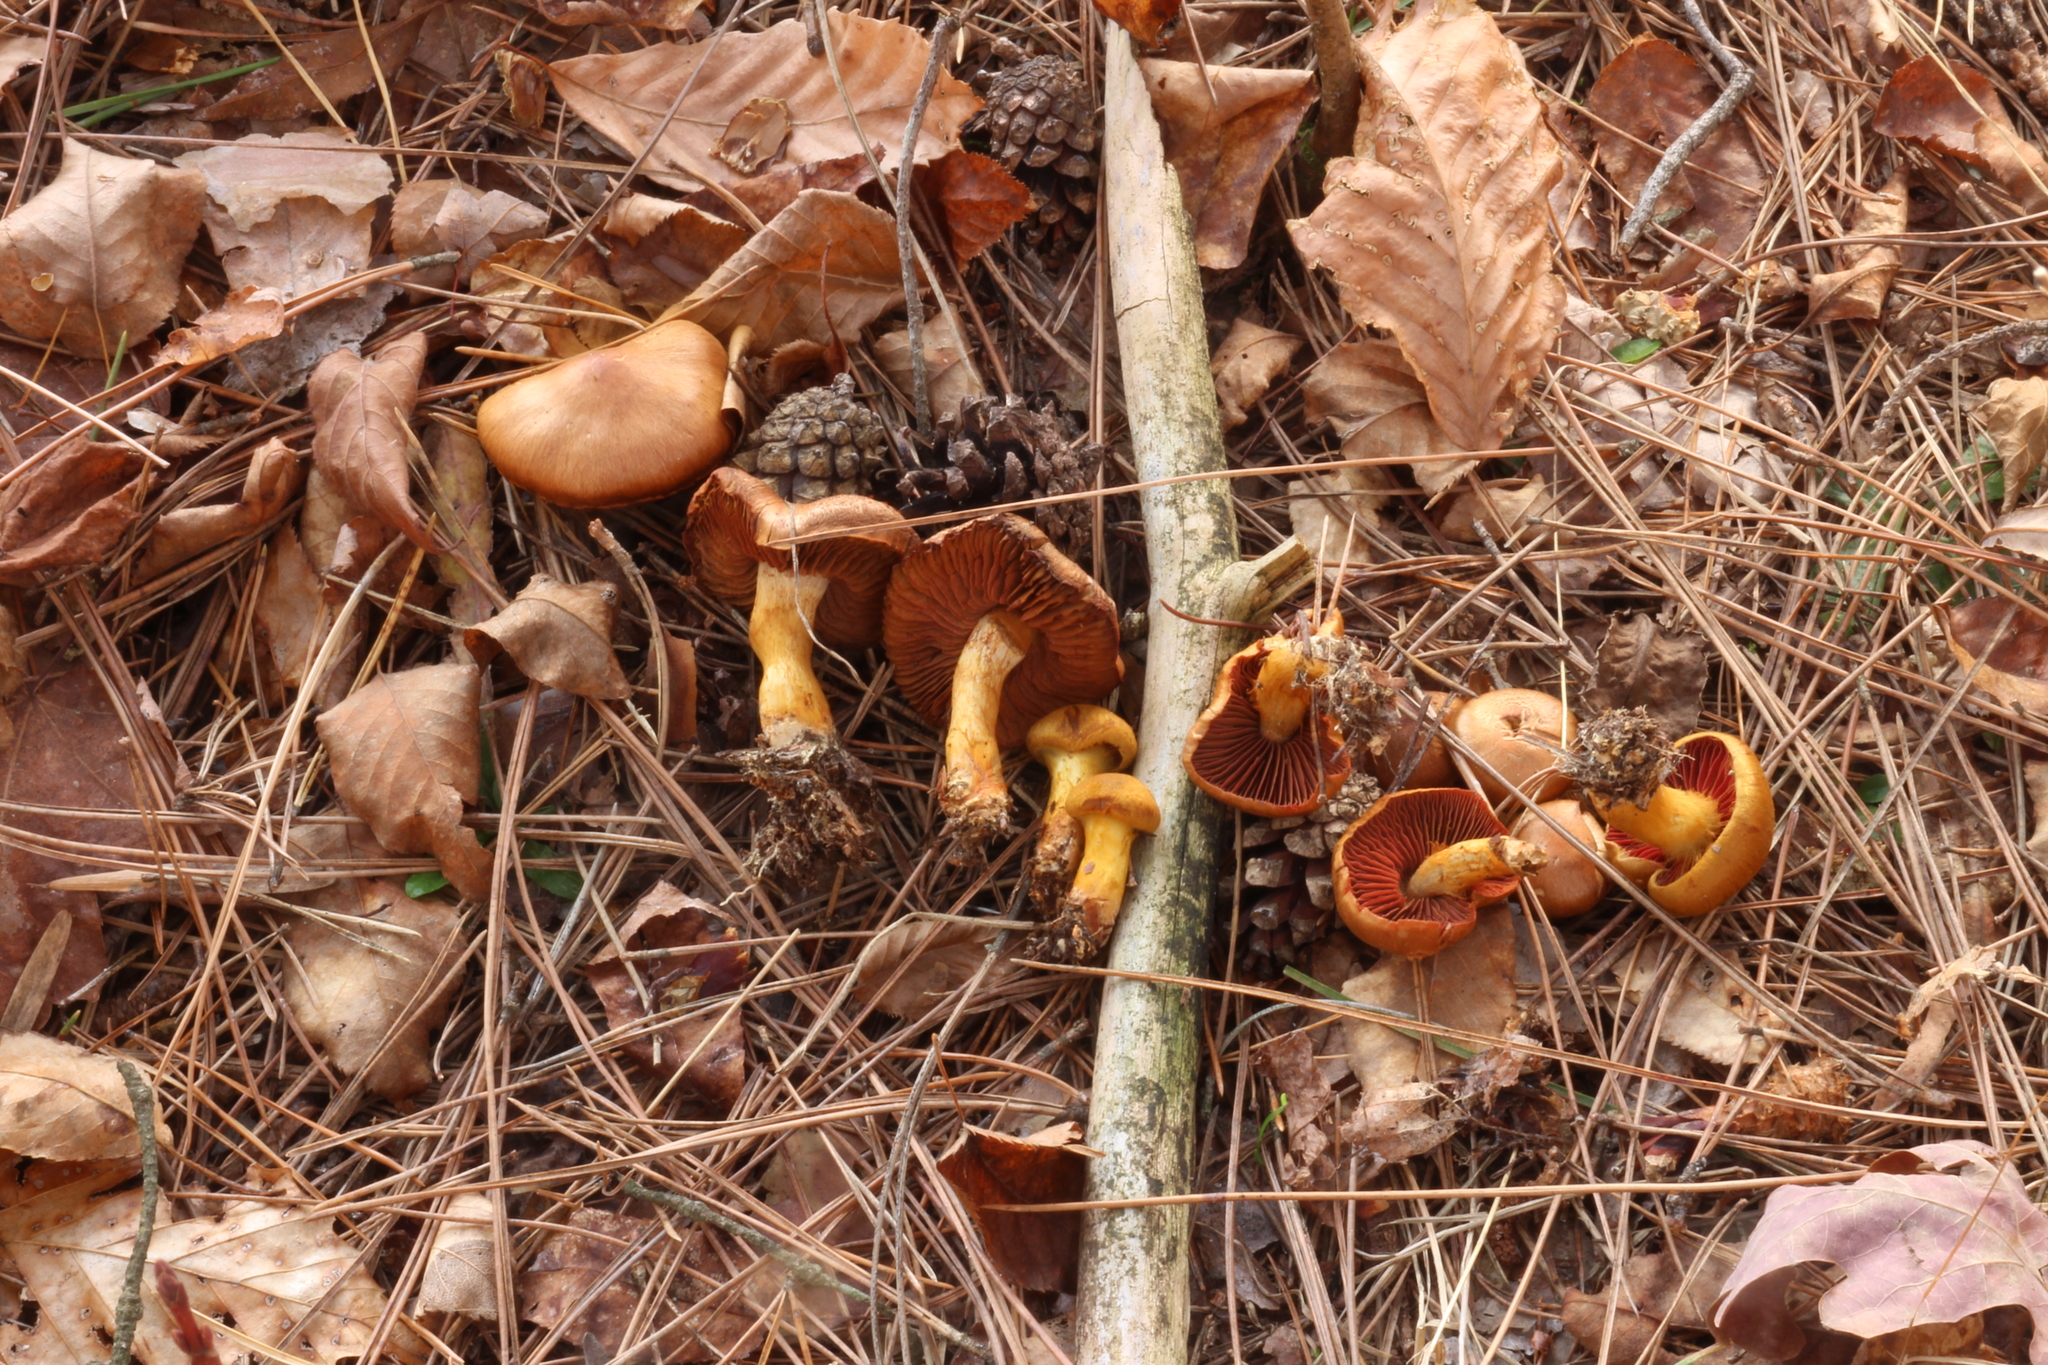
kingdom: Fungi
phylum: Basidiomycota
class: Agaricomycetes
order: Agaricales
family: Cortinariaceae
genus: Cortinarius
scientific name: Cortinarius malicorius
